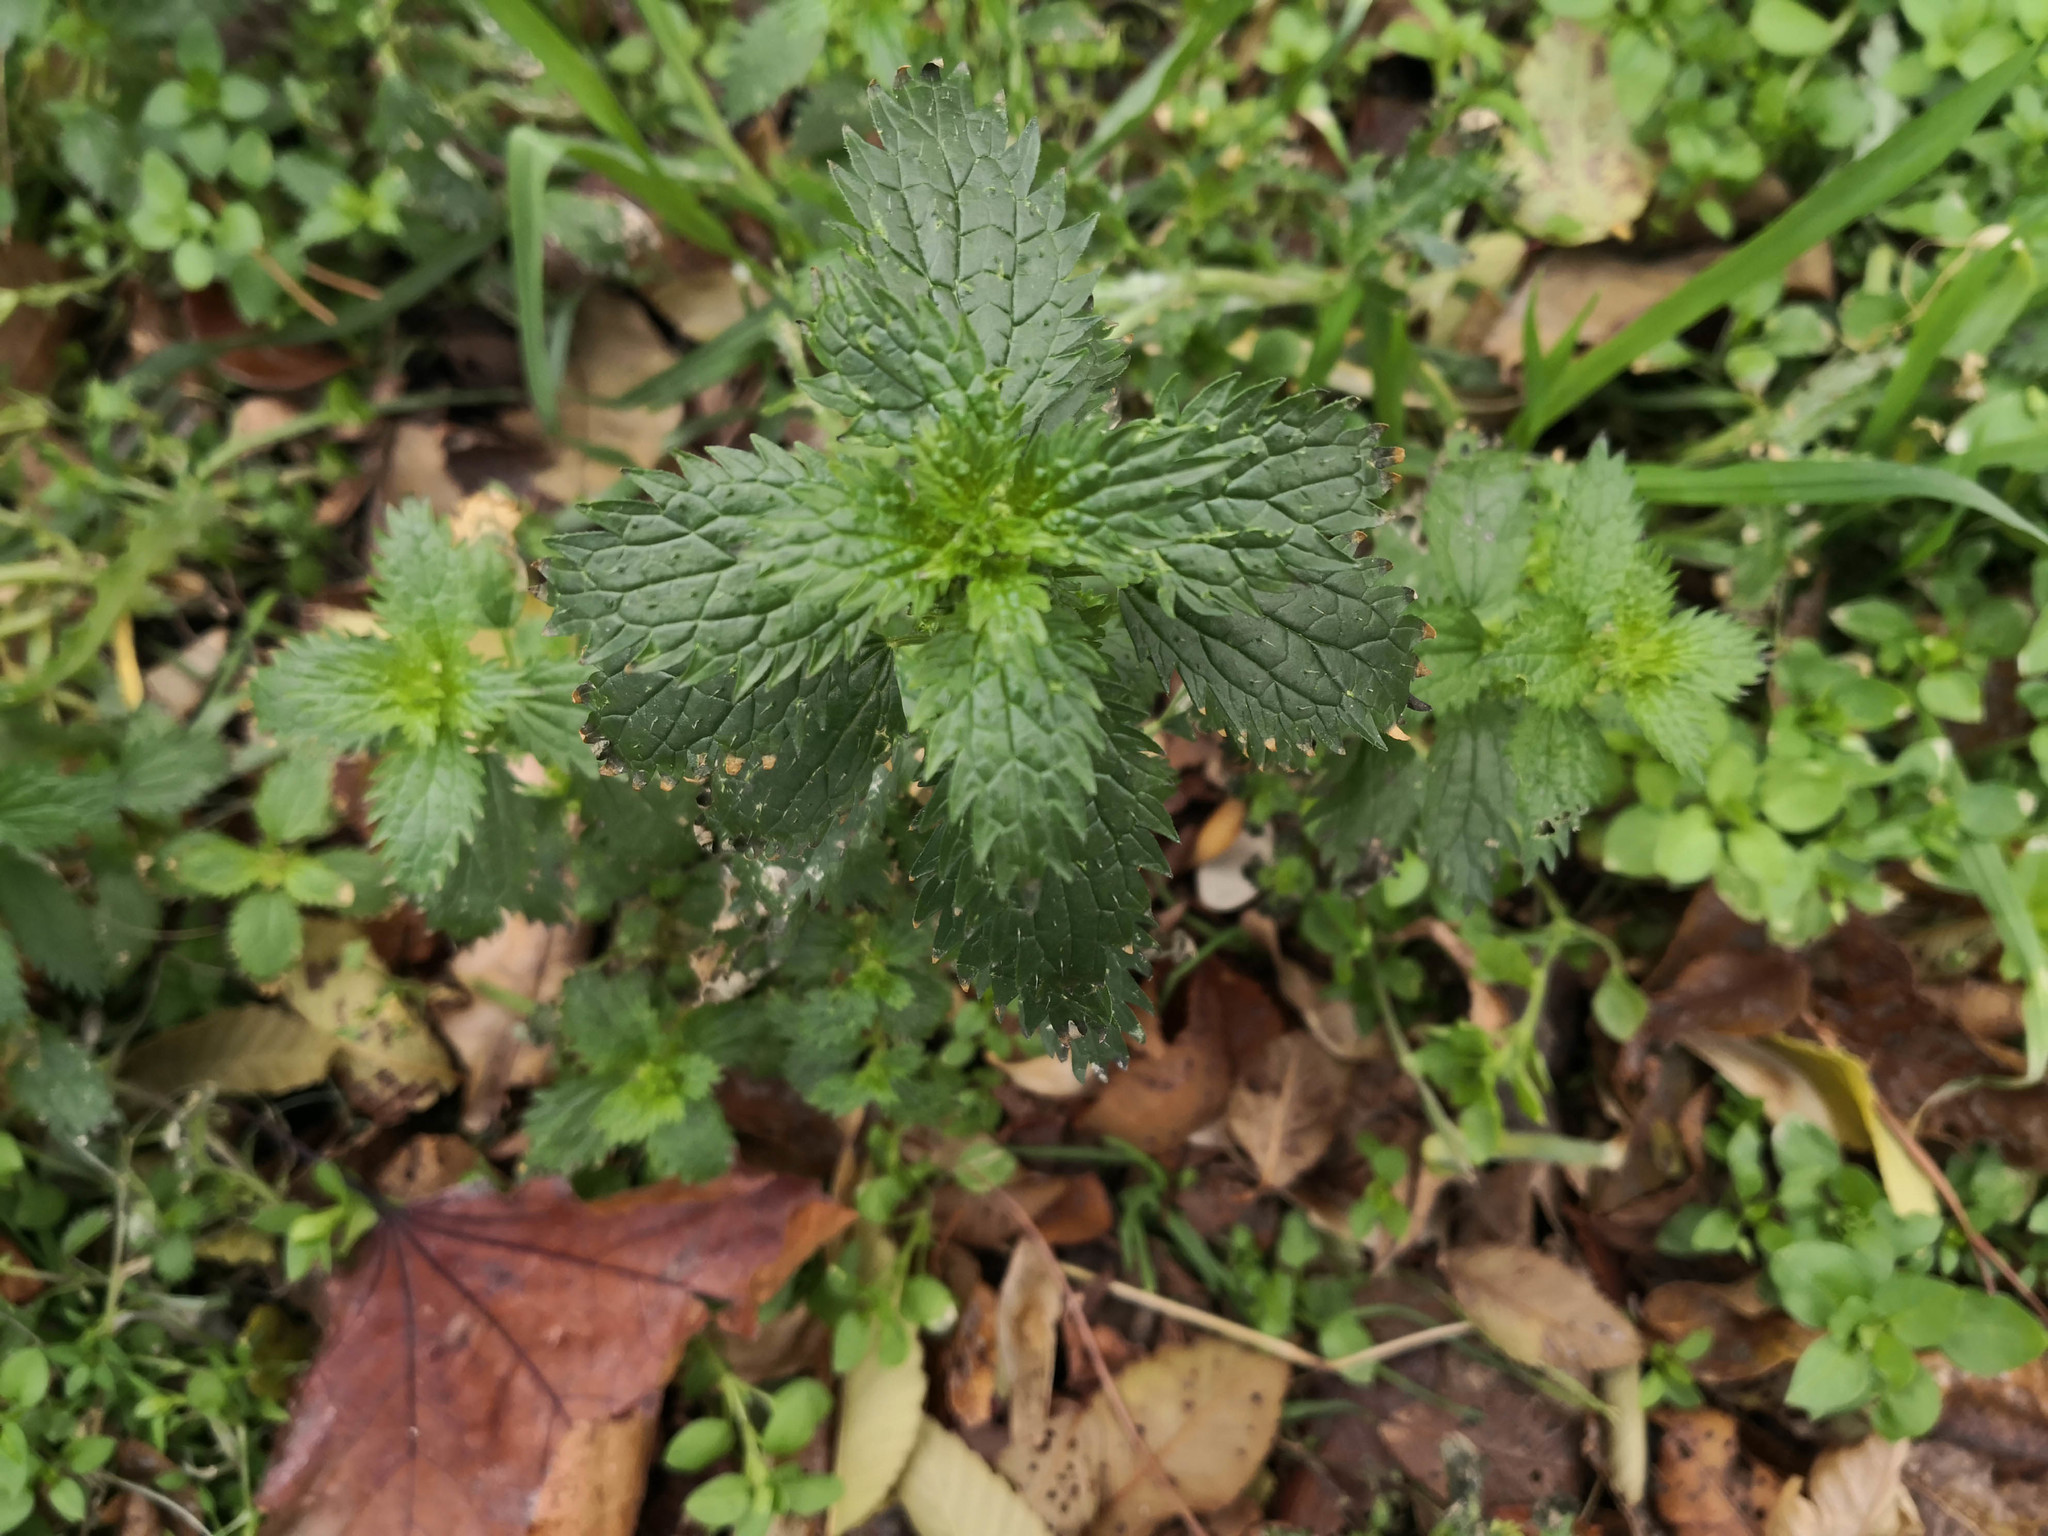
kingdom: Plantae
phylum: Tracheophyta
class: Magnoliopsida
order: Rosales
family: Urticaceae
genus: Urtica
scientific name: Urtica urens
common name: Dwarf nettle
